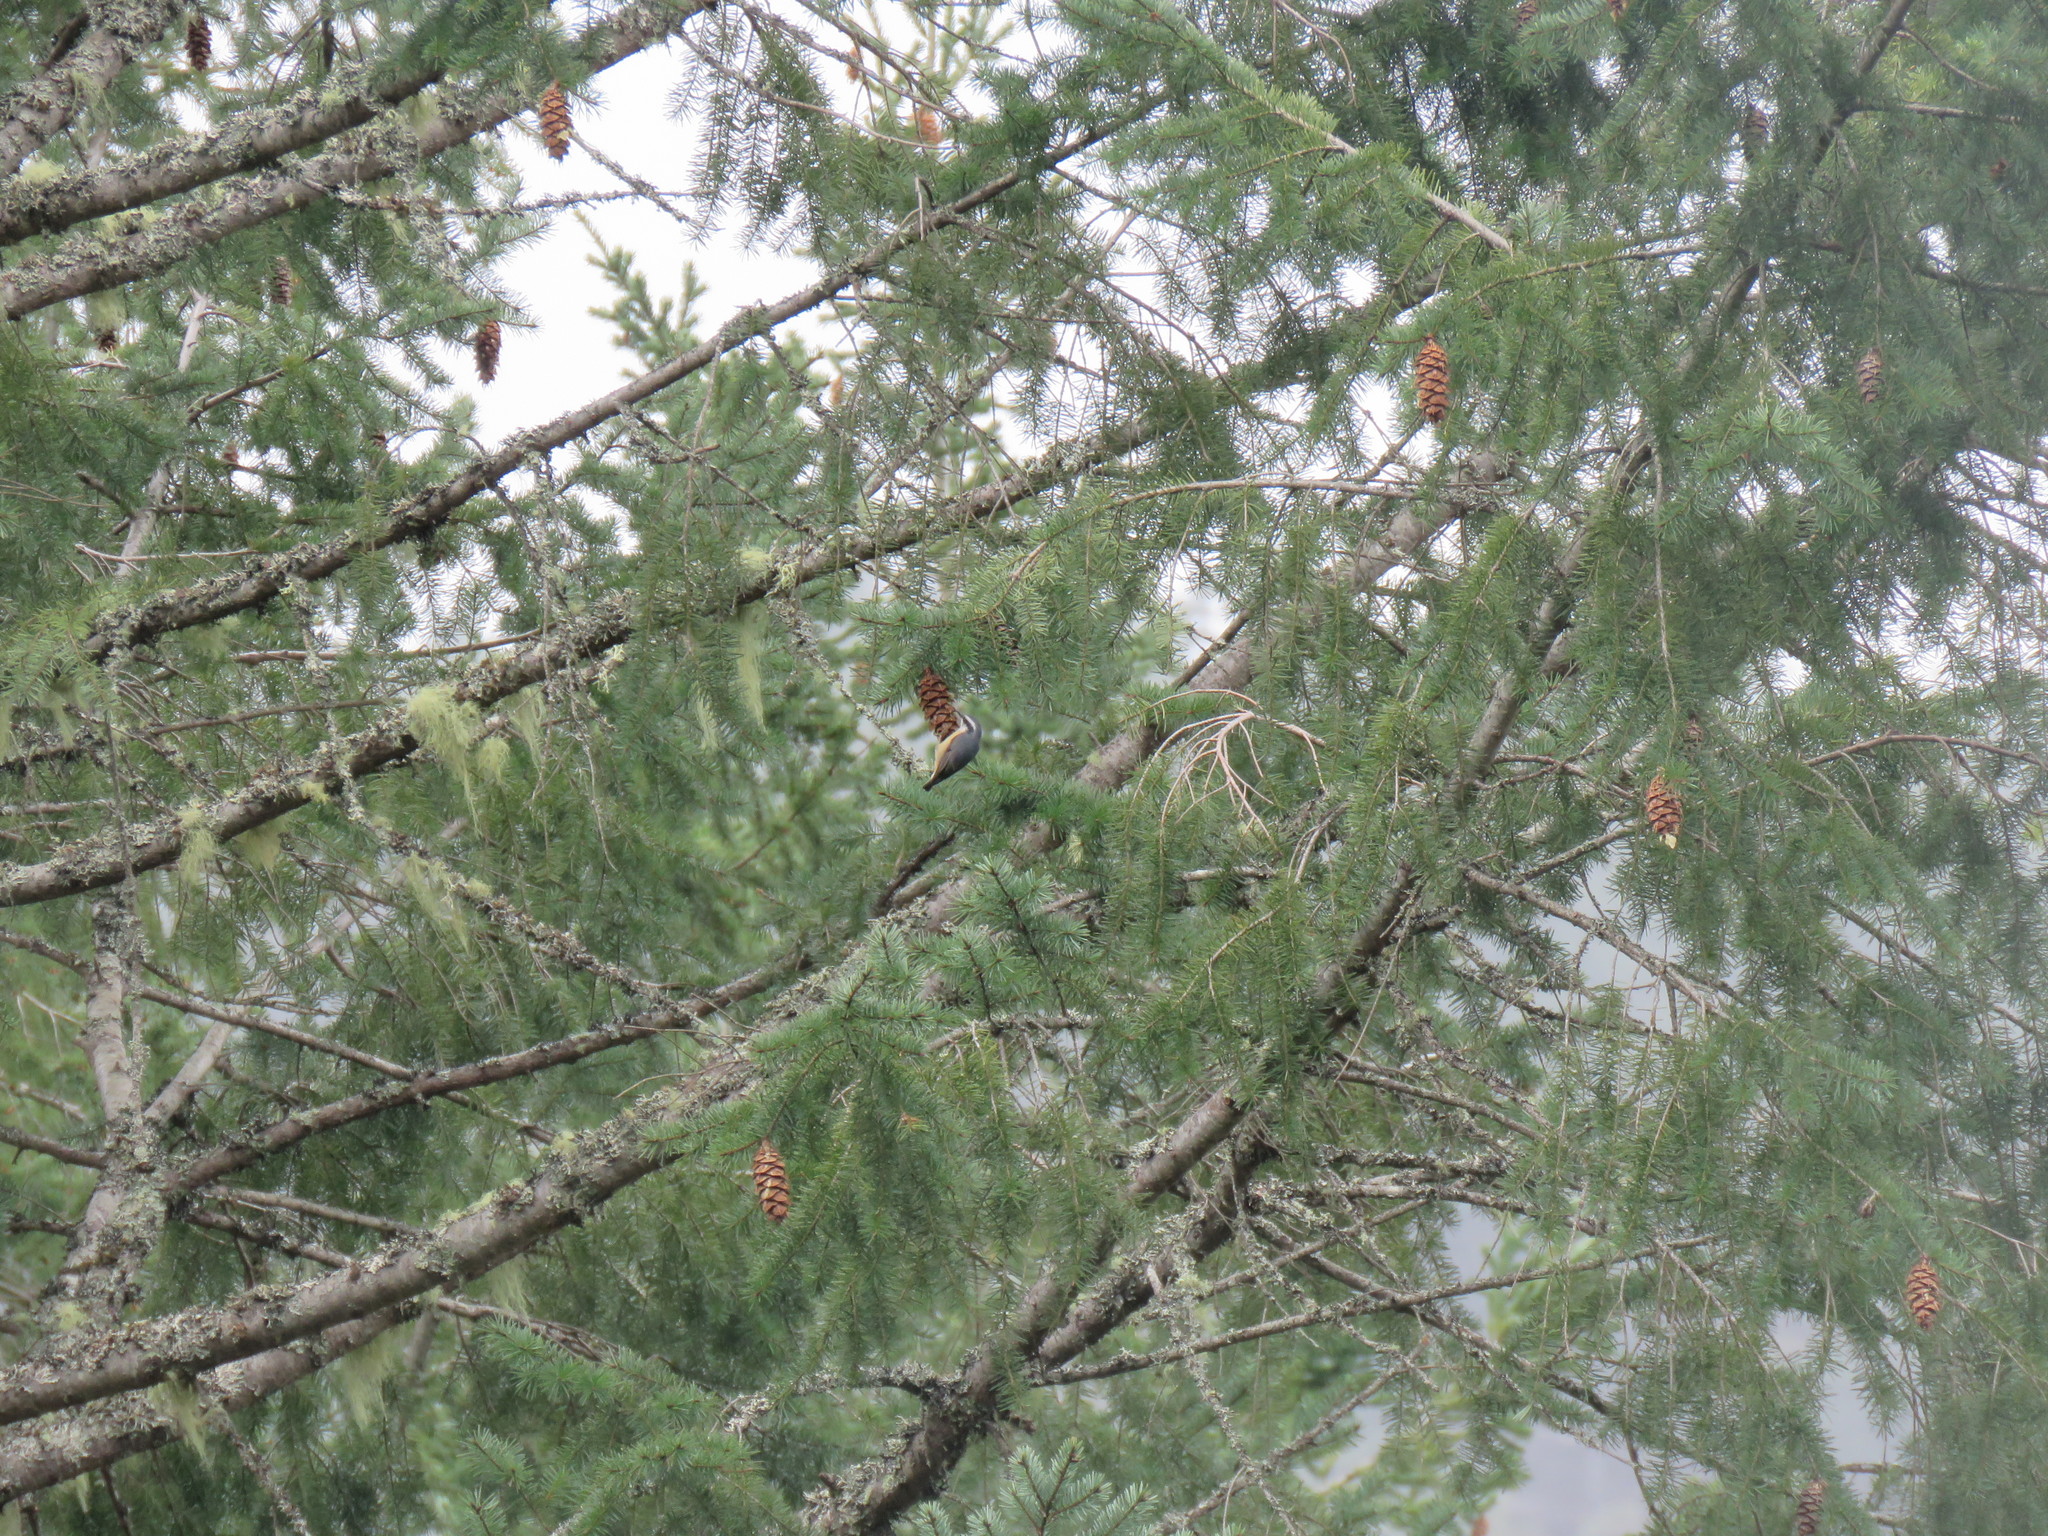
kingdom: Animalia
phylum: Chordata
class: Aves
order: Passeriformes
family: Sittidae
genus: Sitta
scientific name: Sitta canadensis
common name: Red-breasted nuthatch
